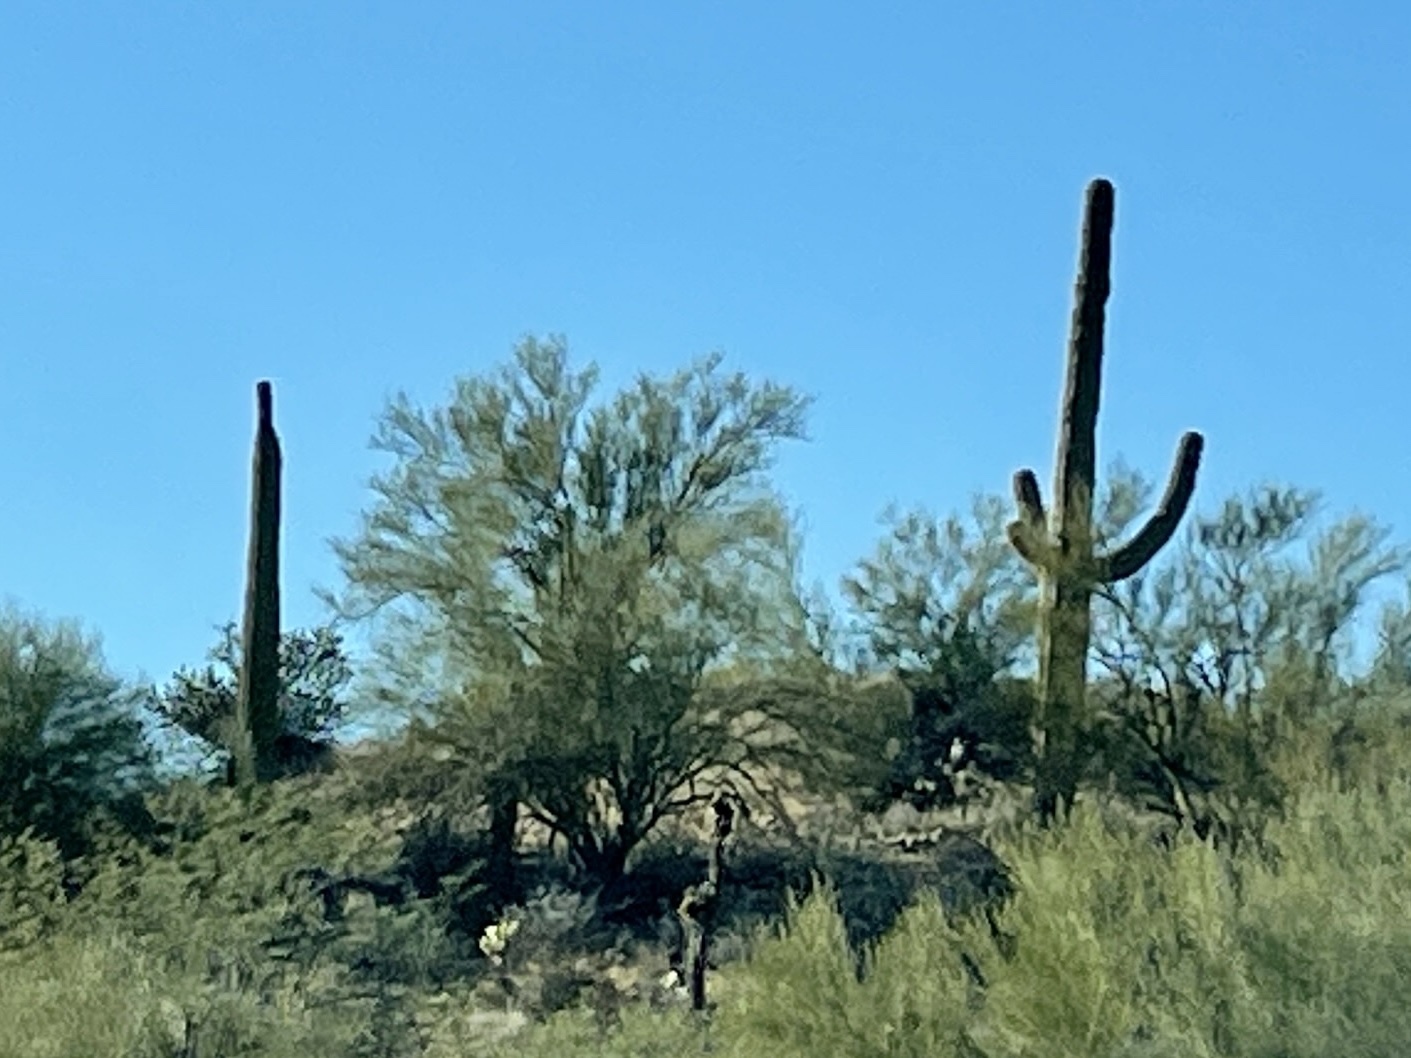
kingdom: Plantae
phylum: Tracheophyta
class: Magnoliopsida
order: Caryophyllales
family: Cactaceae
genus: Carnegiea
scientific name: Carnegiea gigantea
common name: Saguaro
